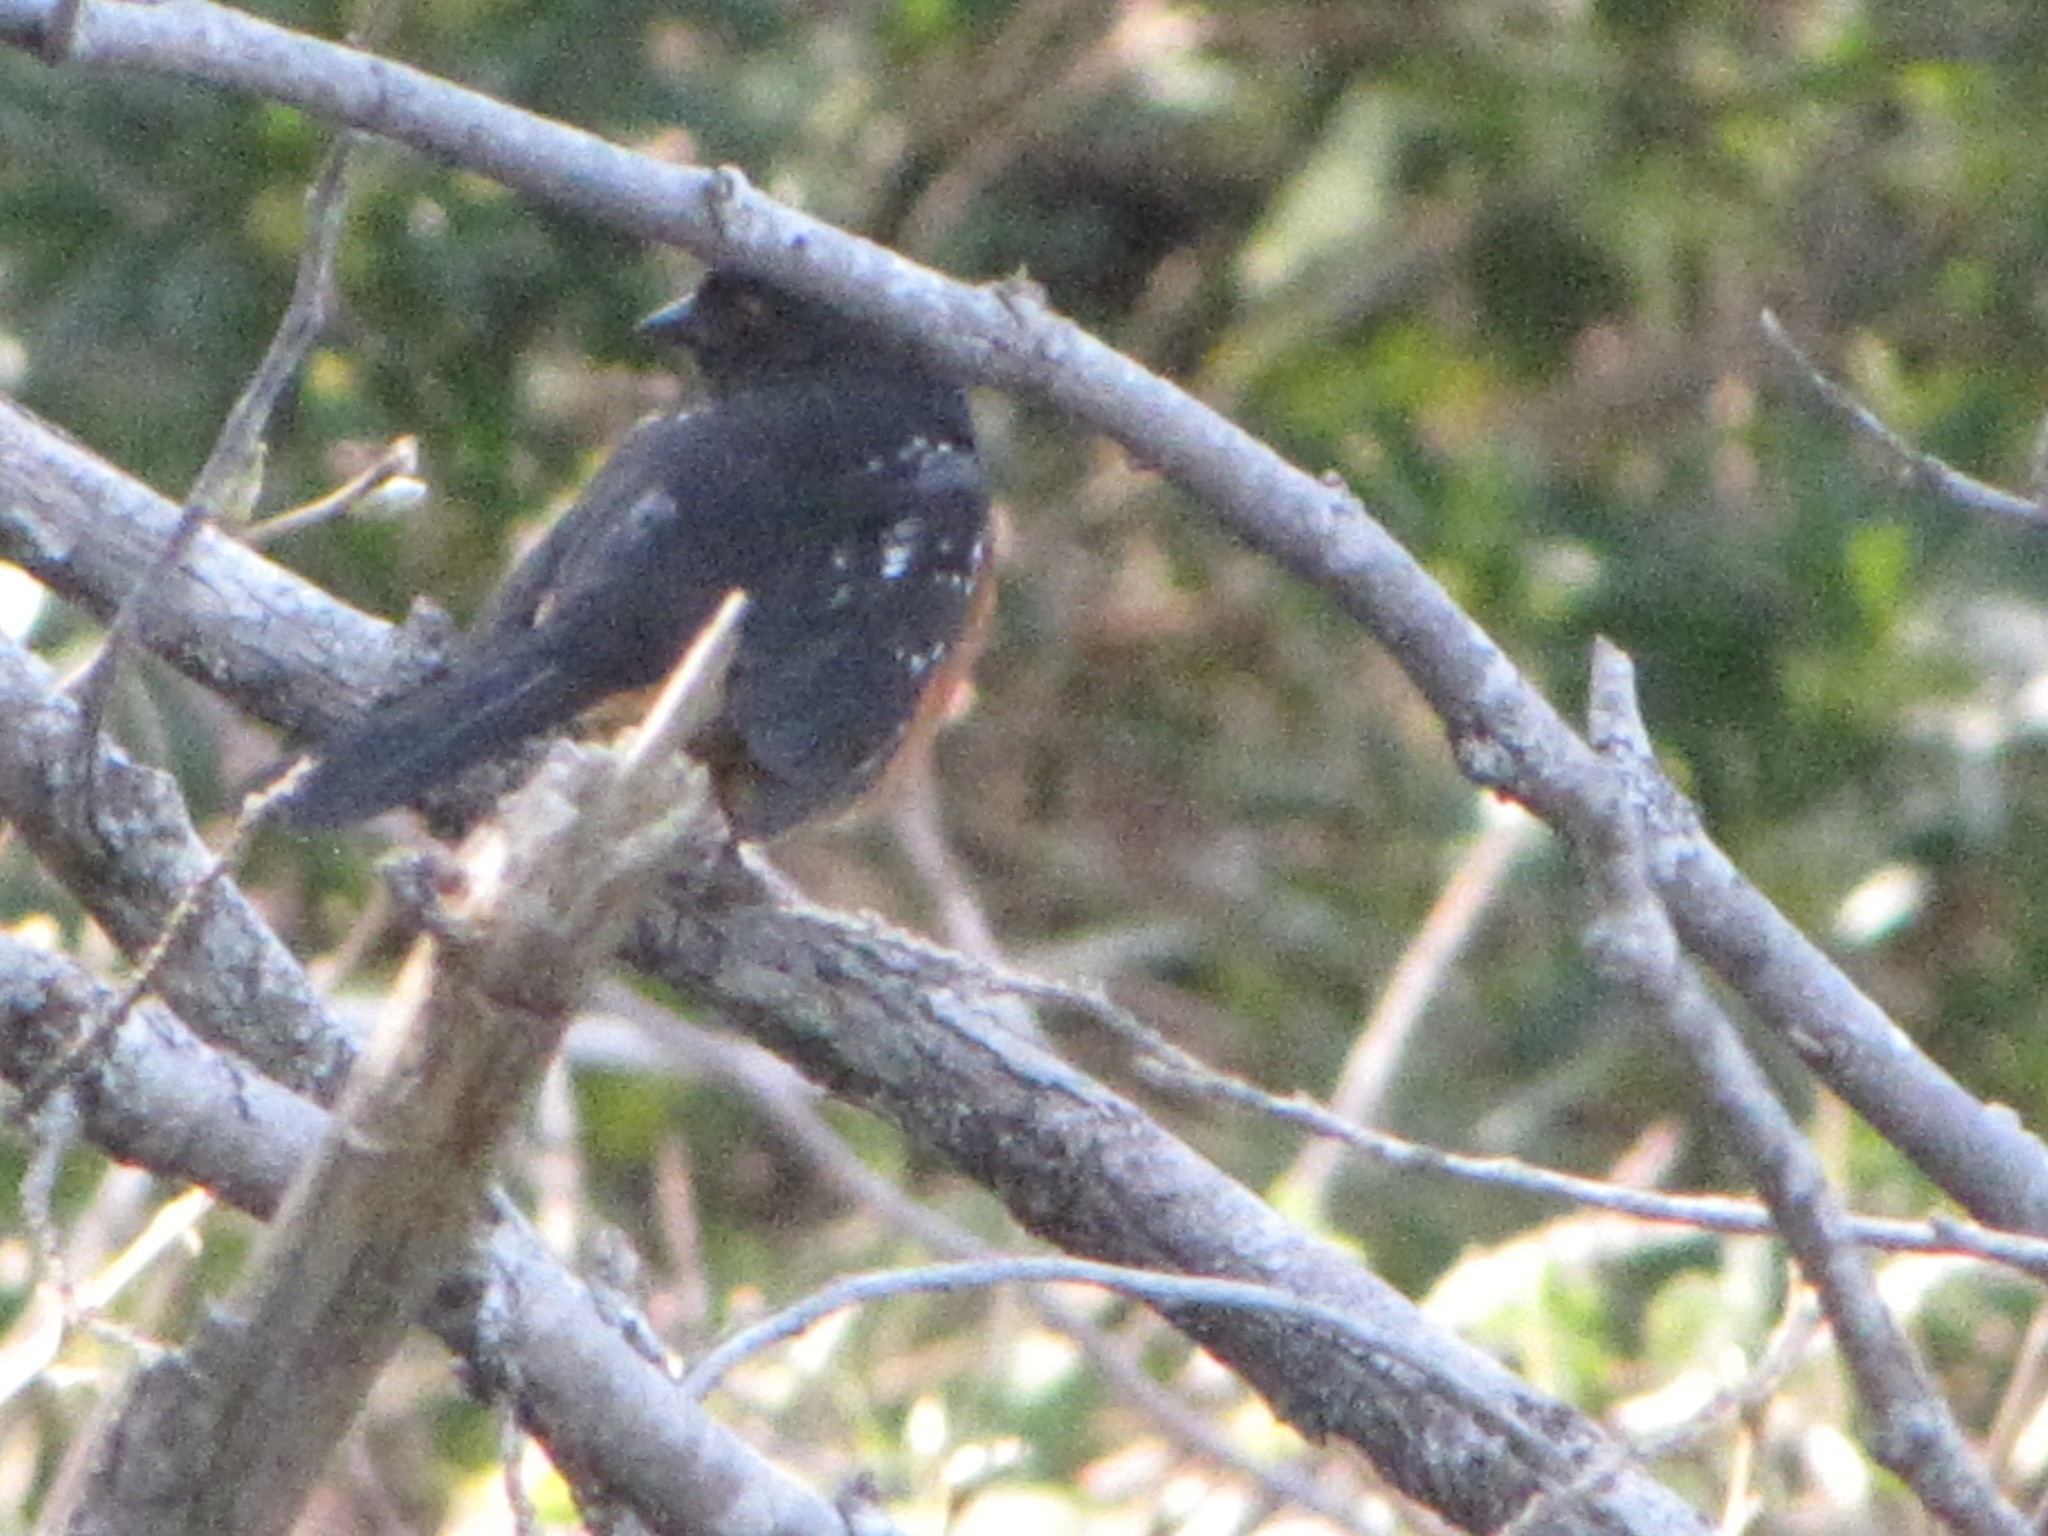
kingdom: Animalia
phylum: Chordata
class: Aves
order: Passeriformes
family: Passerellidae
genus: Pipilo
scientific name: Pipilo maculatus
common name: Spotted towhee
